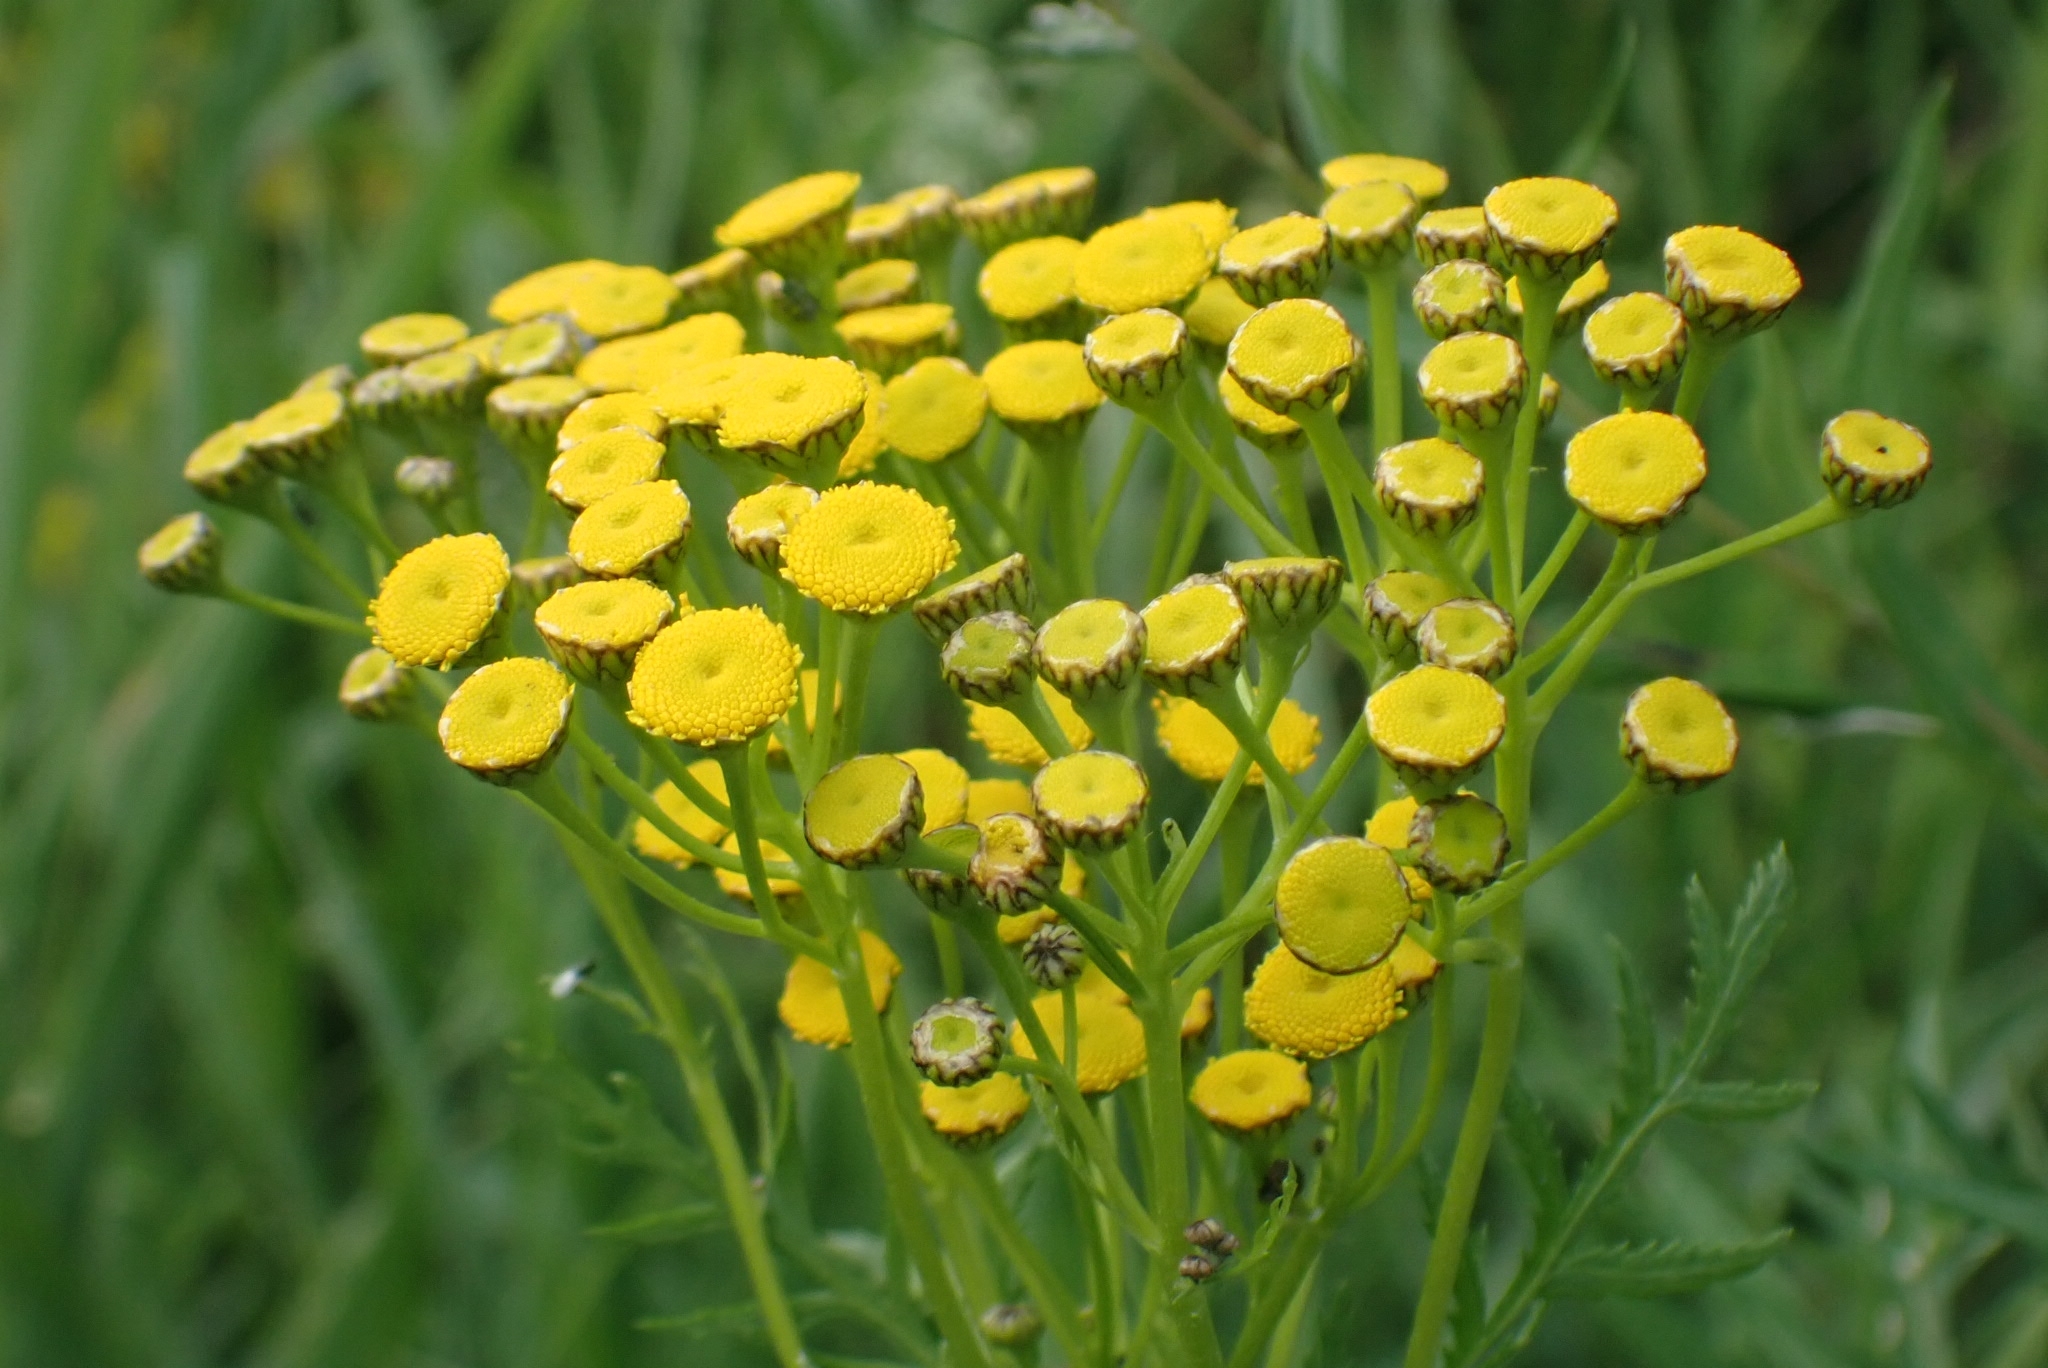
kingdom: Plantae
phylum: Tracheophyta
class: Magnoliopsida
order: Asterales
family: Asteraceae
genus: Tanacetum
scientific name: Tanacetum vulgare
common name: Common tansy
